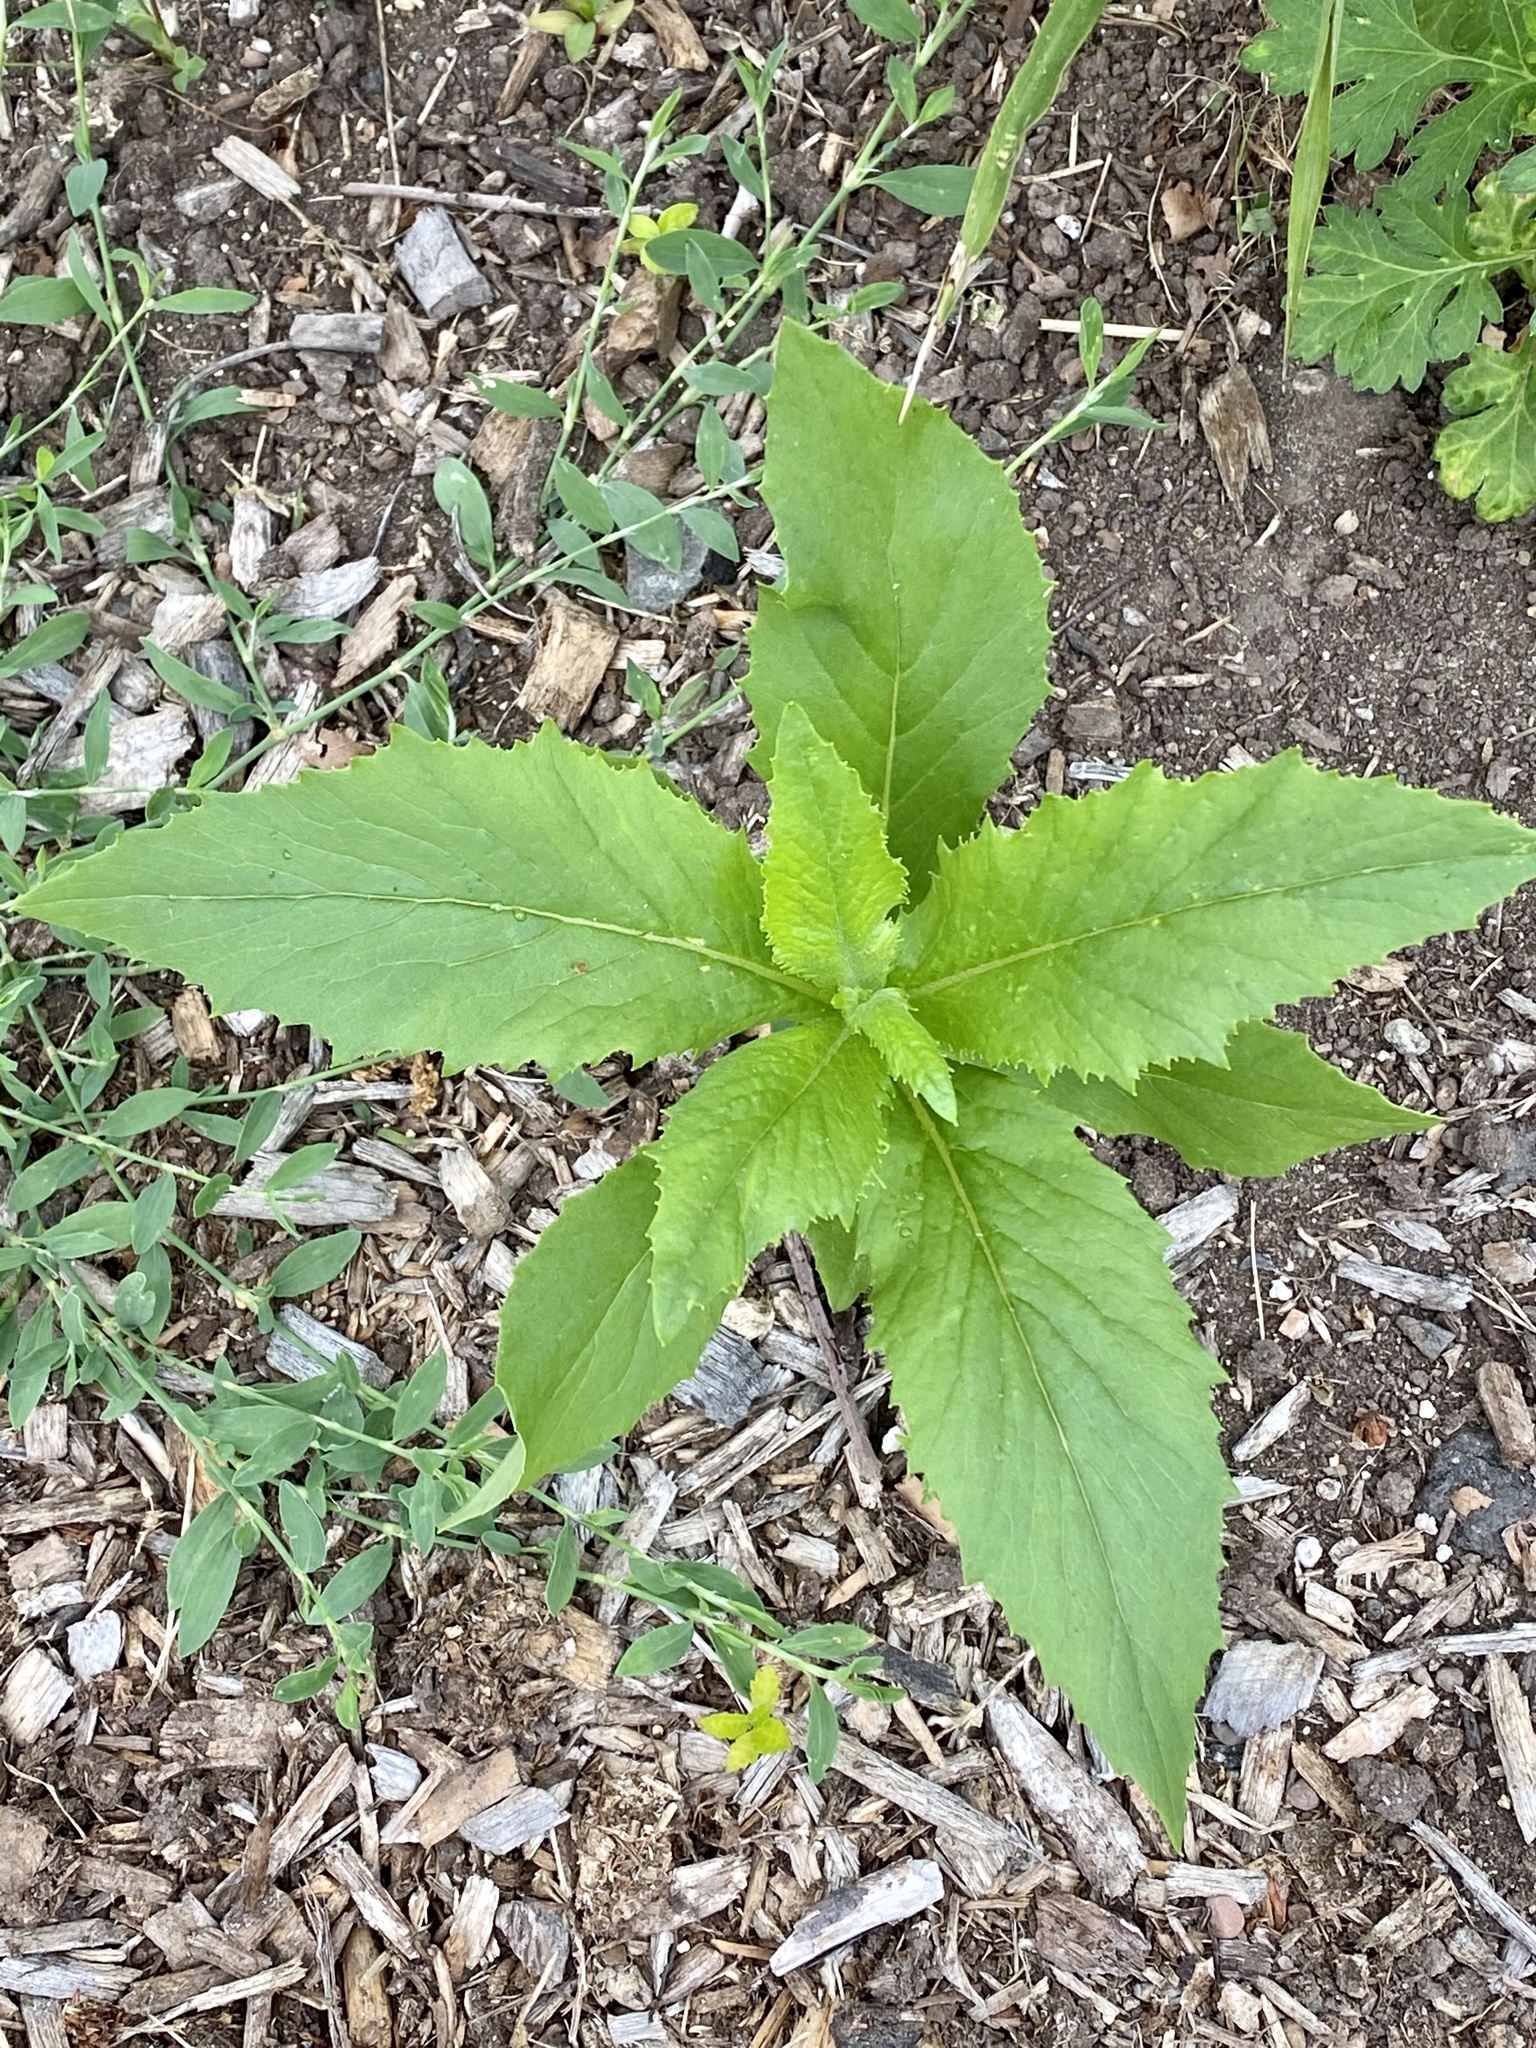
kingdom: Plantae
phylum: Tracheophyta
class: Magnoliopsida
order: Asterales
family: Asteraceae
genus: Erechtites
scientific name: Erechtites hieraciifolius
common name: American burnweed
